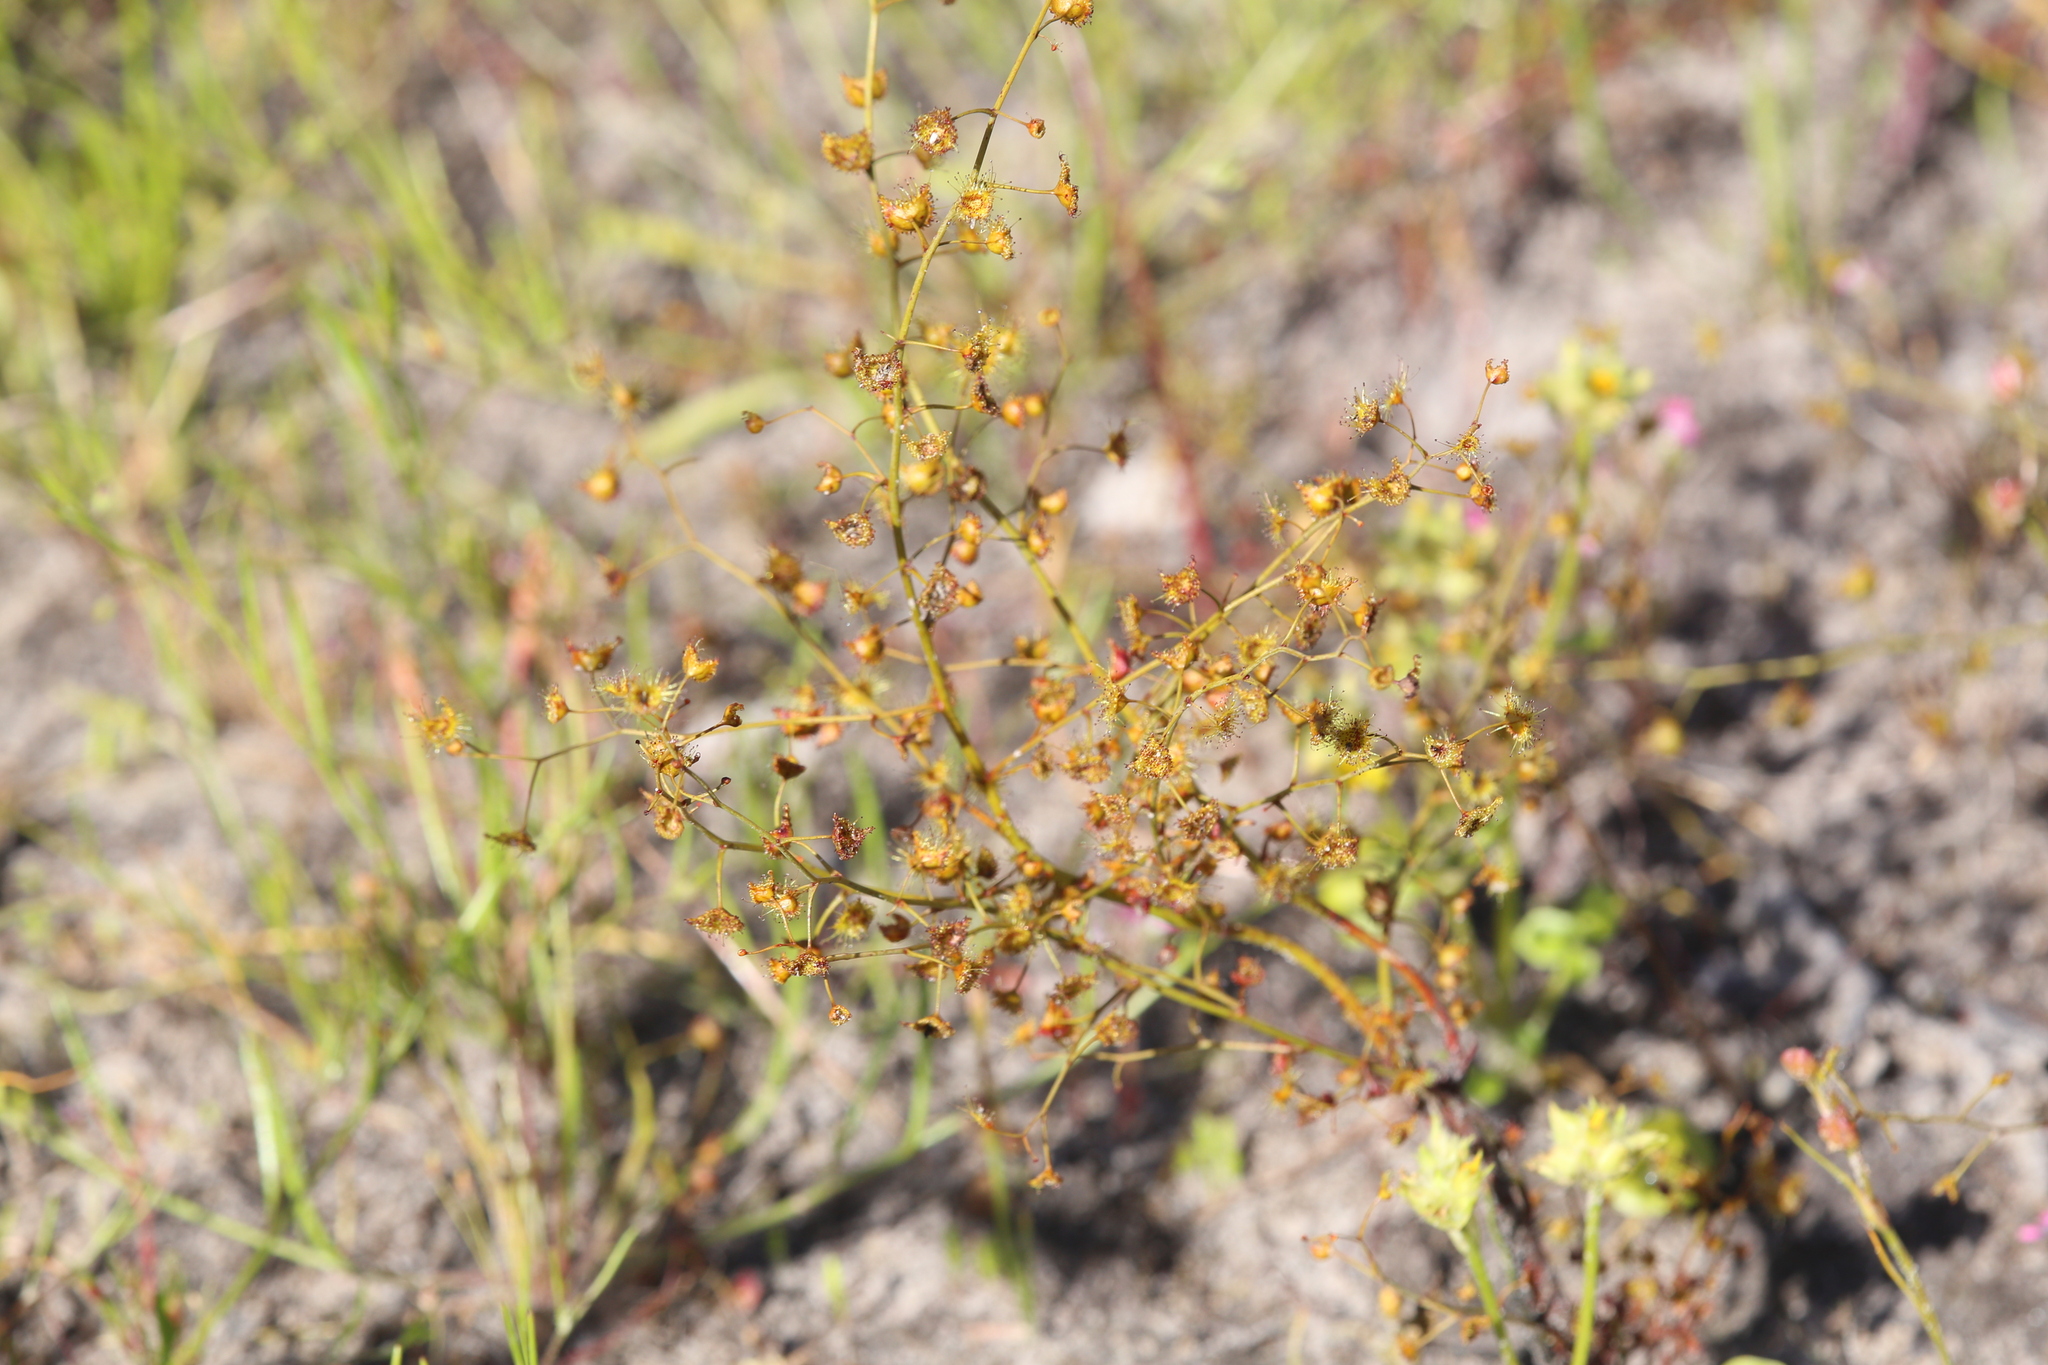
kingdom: Plantae
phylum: Tracheophyta
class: Magnoliopsida
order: Caryophyllales
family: Droseraceae
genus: Drosera
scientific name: Drosera gigantea
